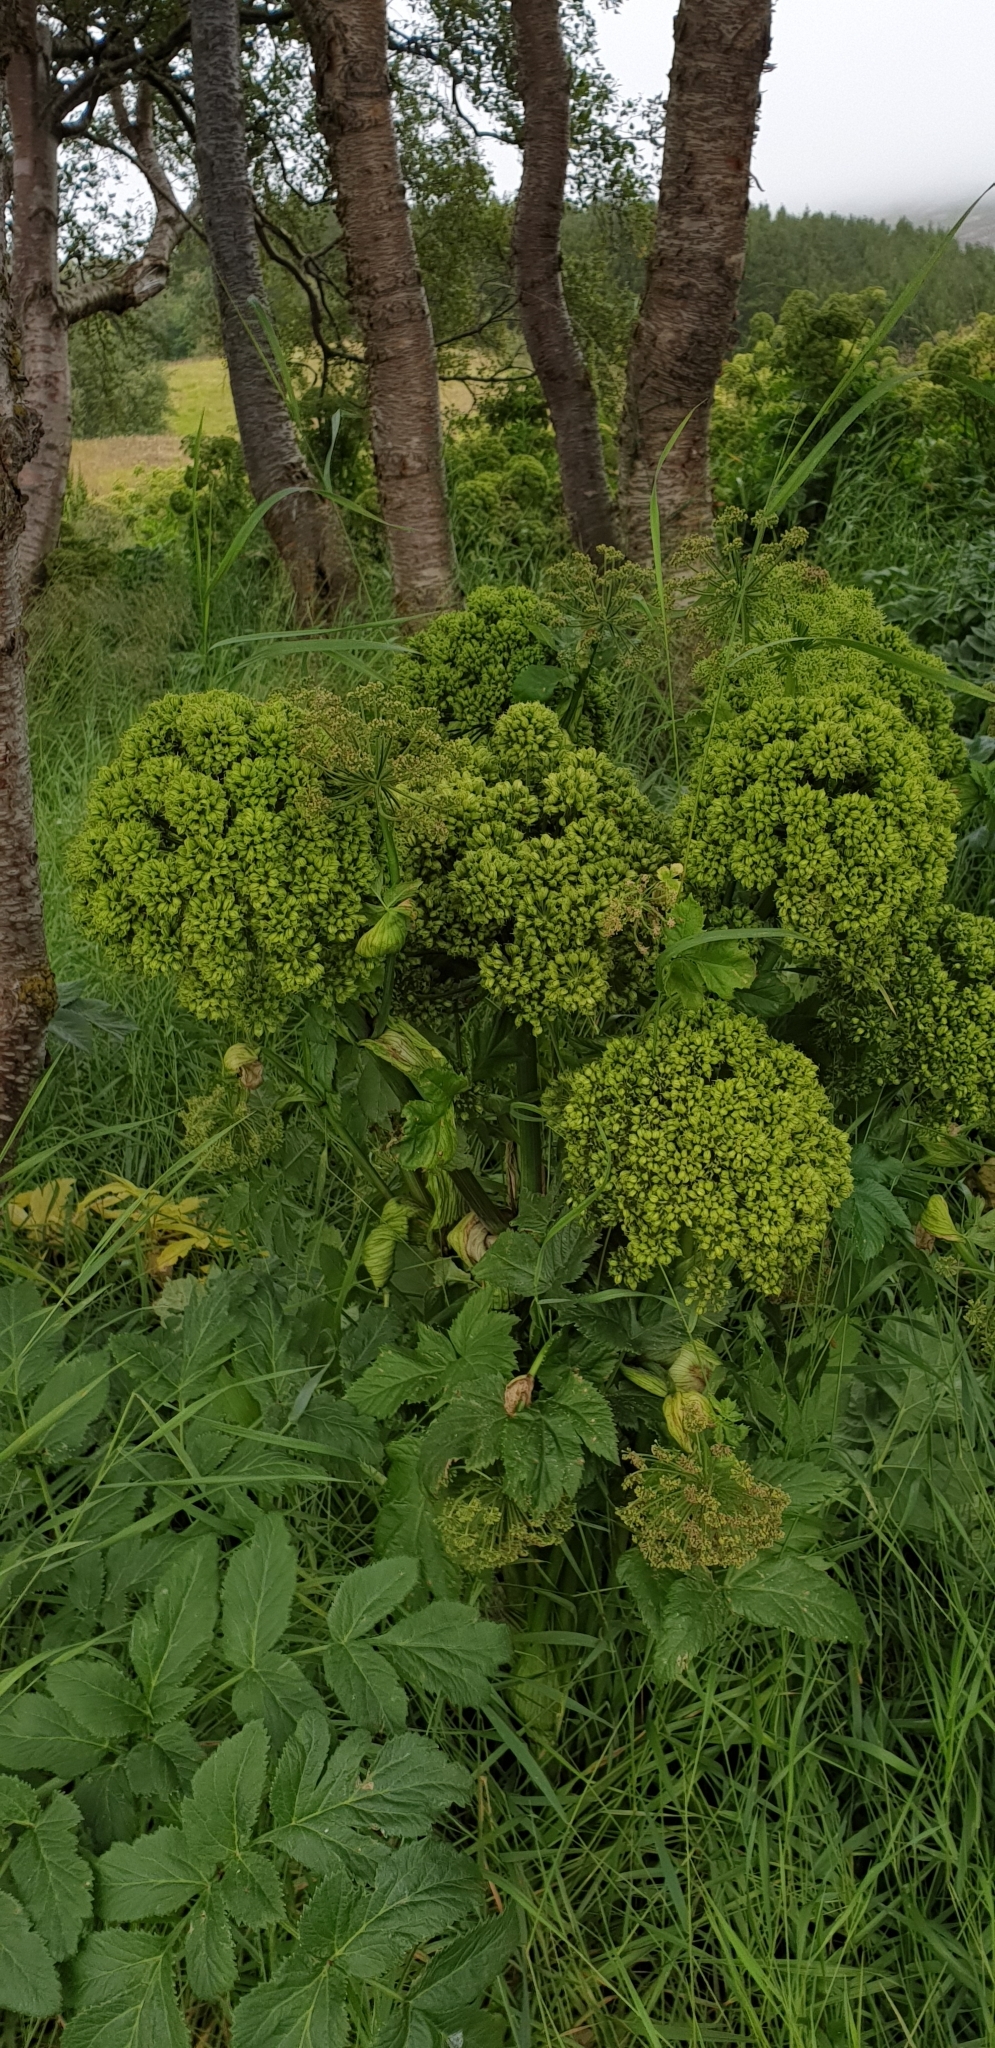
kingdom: Plantae
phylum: Tracheophyta
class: Magnoliopsida
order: Apiales
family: Apiaceae
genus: Angelica
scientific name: Angelica archangelica
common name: Garden angelica
